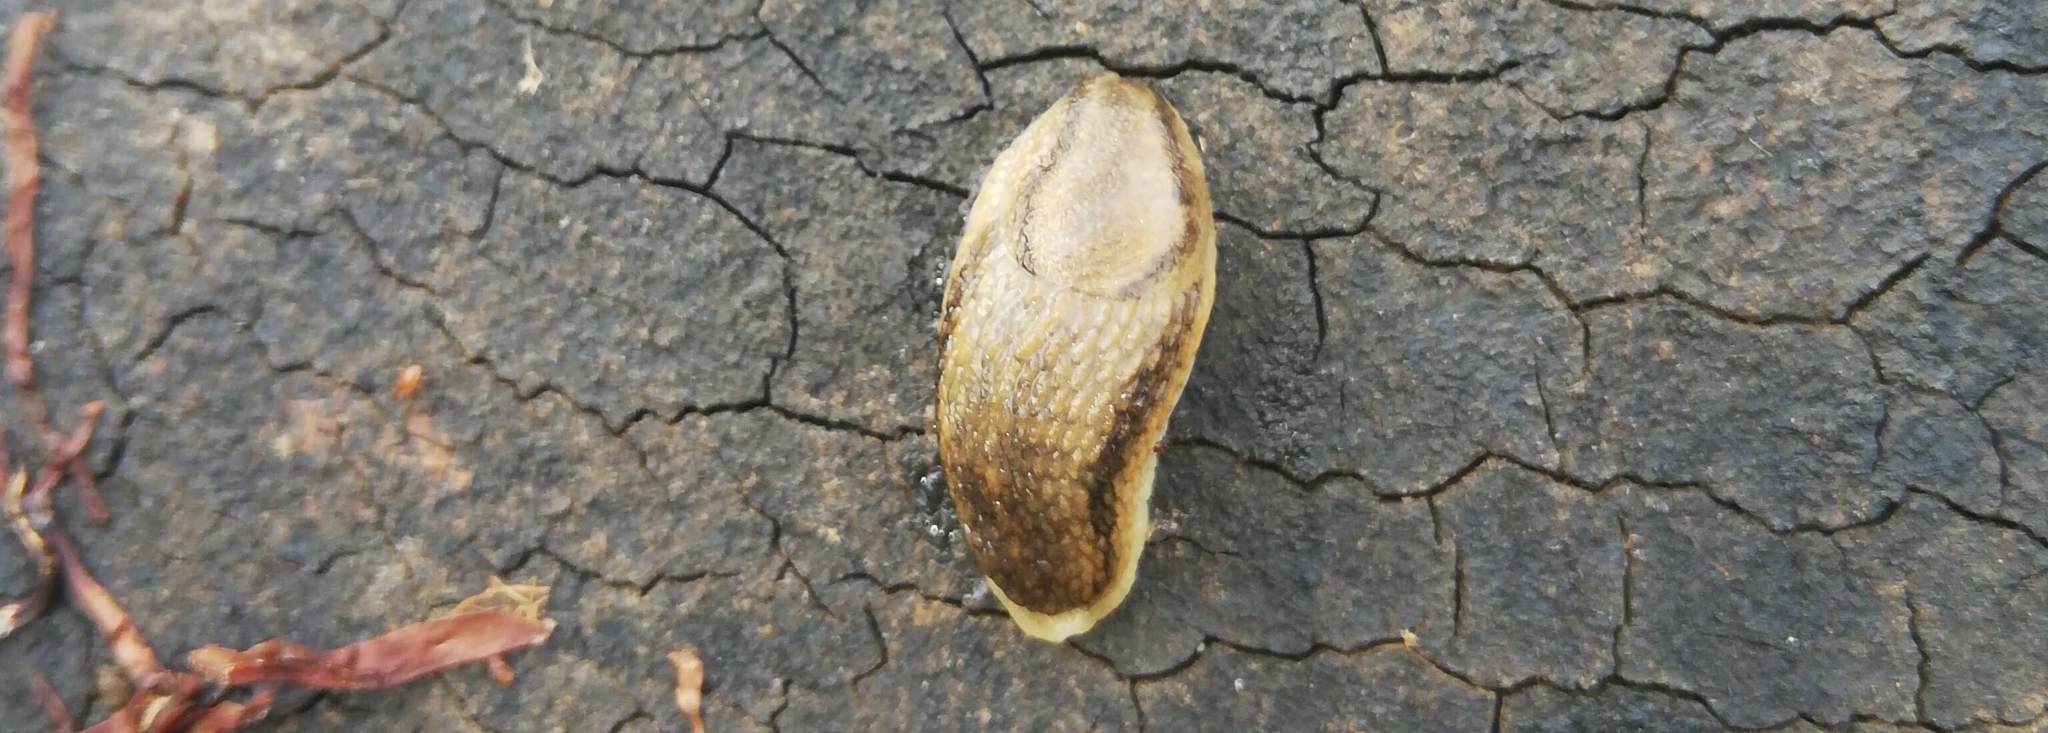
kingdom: Animalia
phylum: Mollusca
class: Gastropoda
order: Stylommatophora
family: Arionidae
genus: Arion
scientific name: Arion fasciatus
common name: Orange-banded arion
